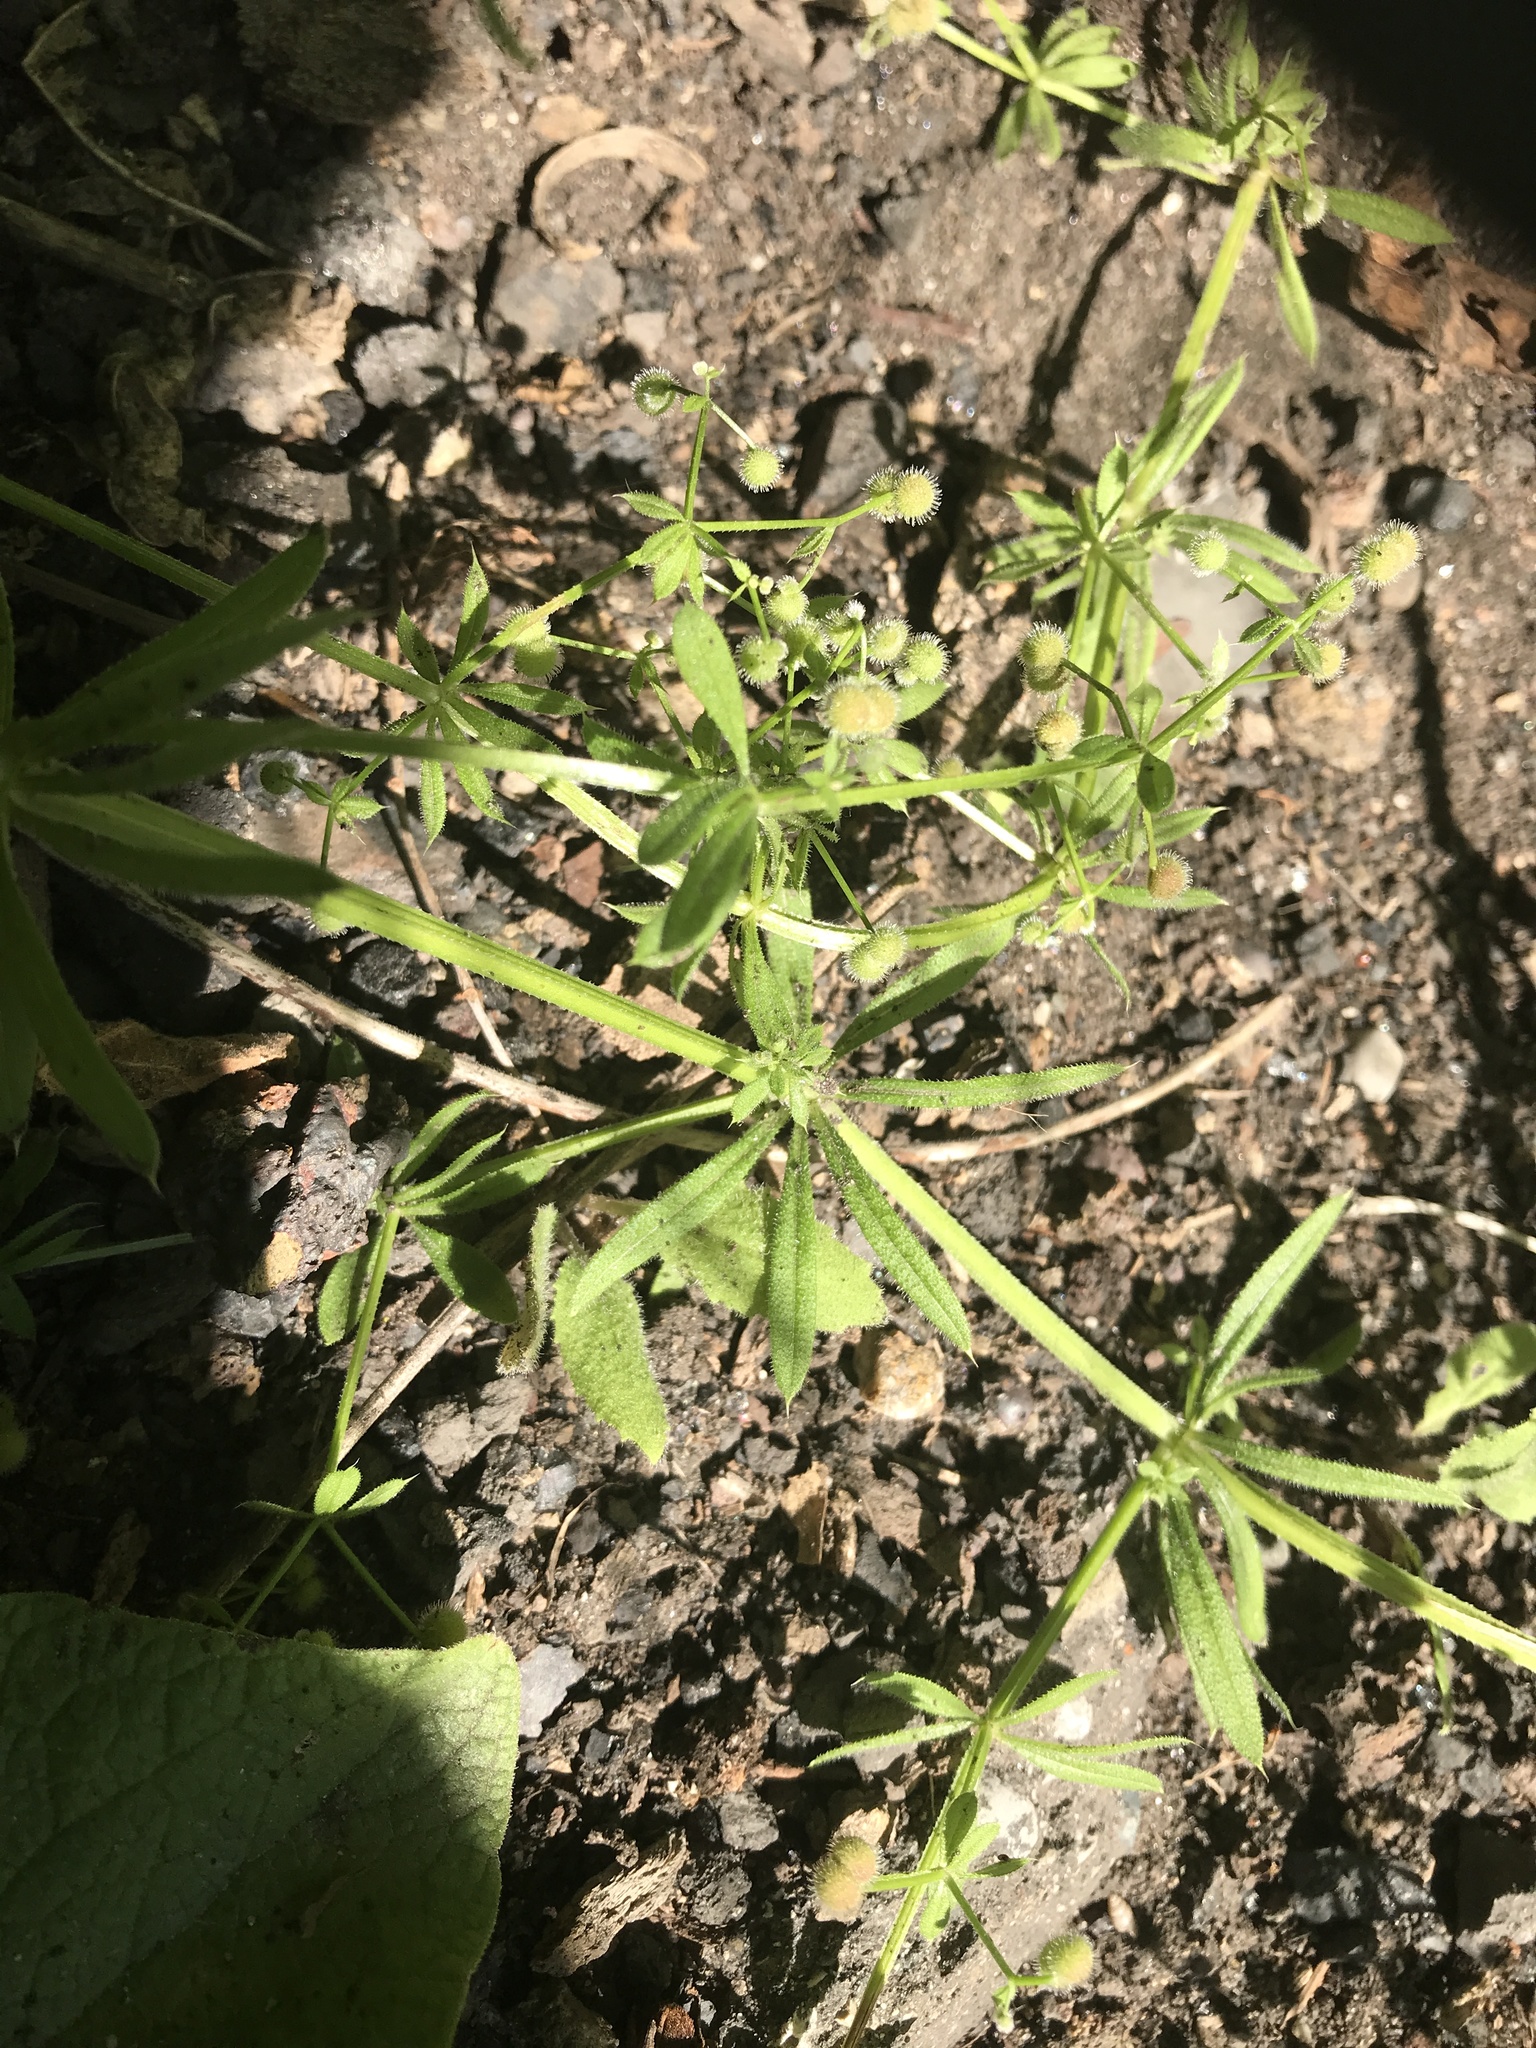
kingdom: Plantae
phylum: Tracheophyta
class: Magnoliopsida
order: Gentianales
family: Rubiaceae
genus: Galium
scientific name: Galium aparine
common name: Cleavers
